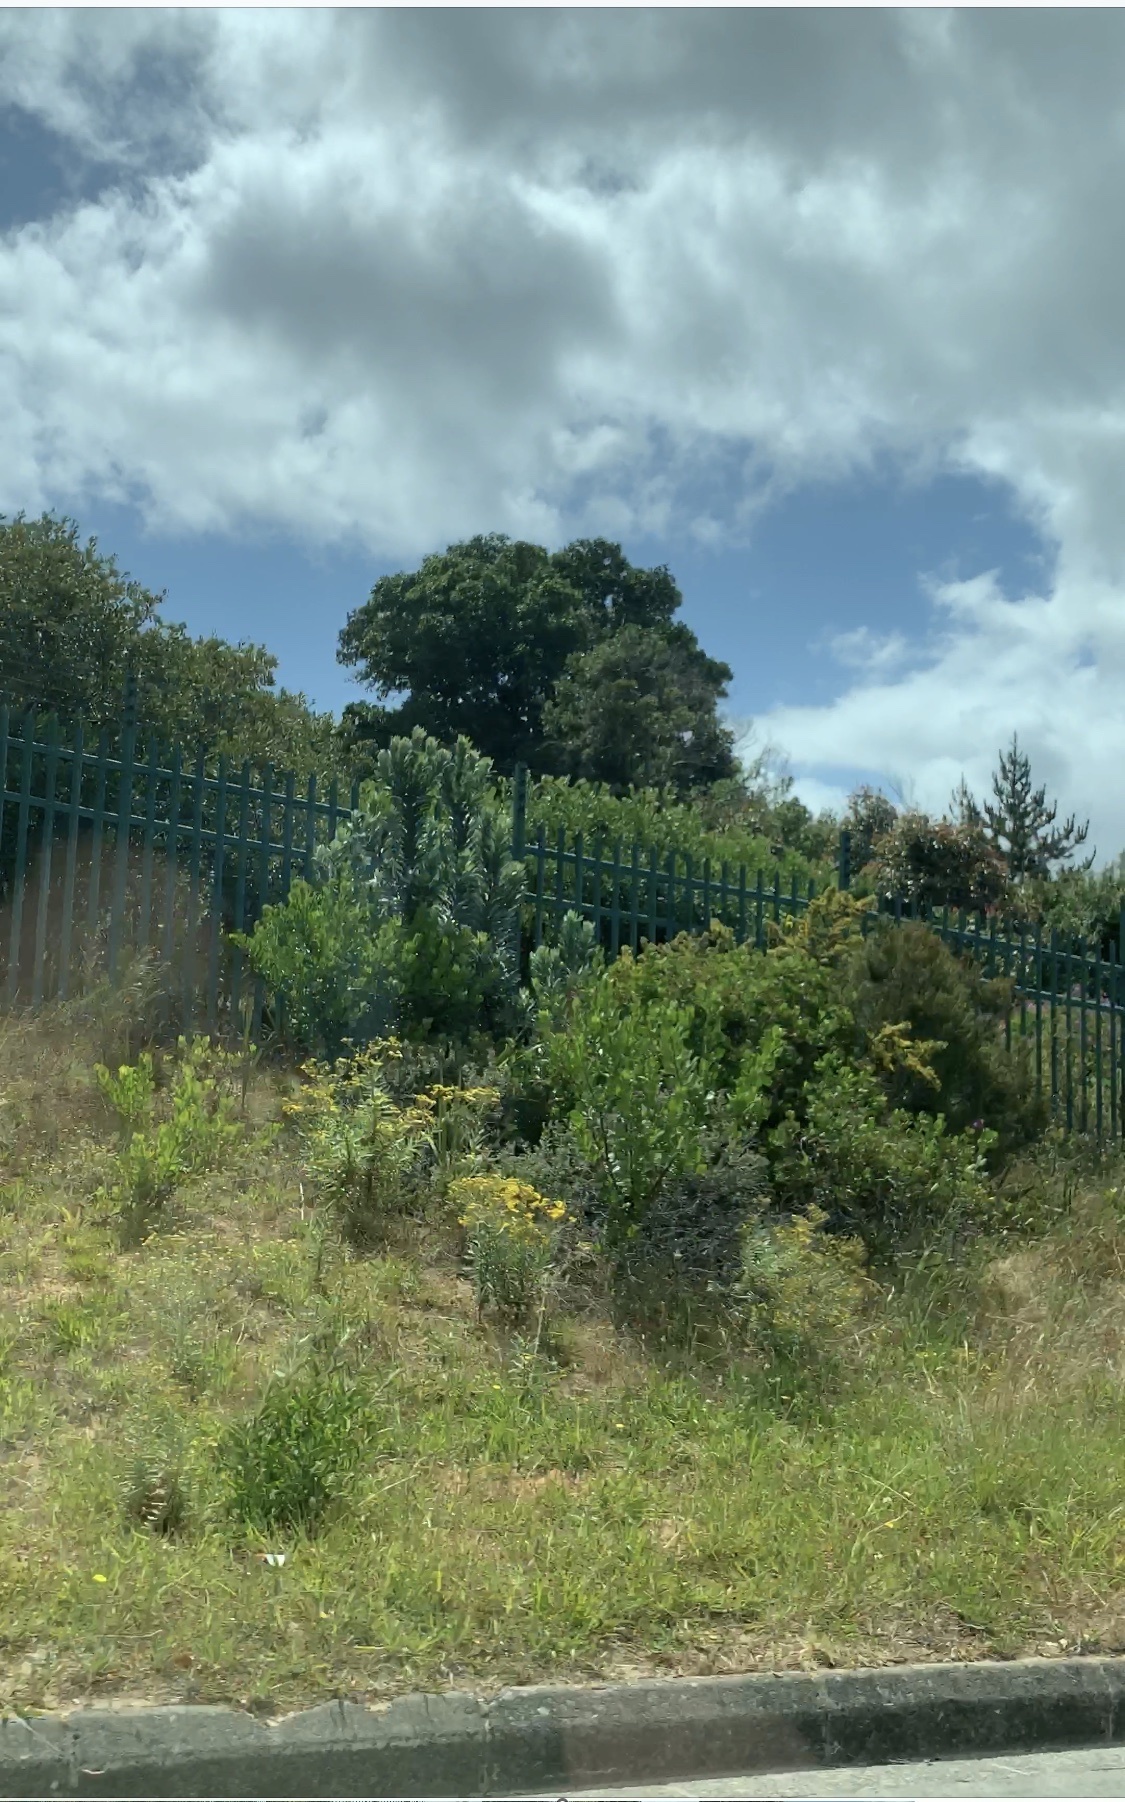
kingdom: Plantae
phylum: Tracheophyta
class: Magnoliopsida
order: Proteales
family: Proteaceae
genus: Leucadendron
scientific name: Leucadendron argenteum
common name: Cape silver tree
